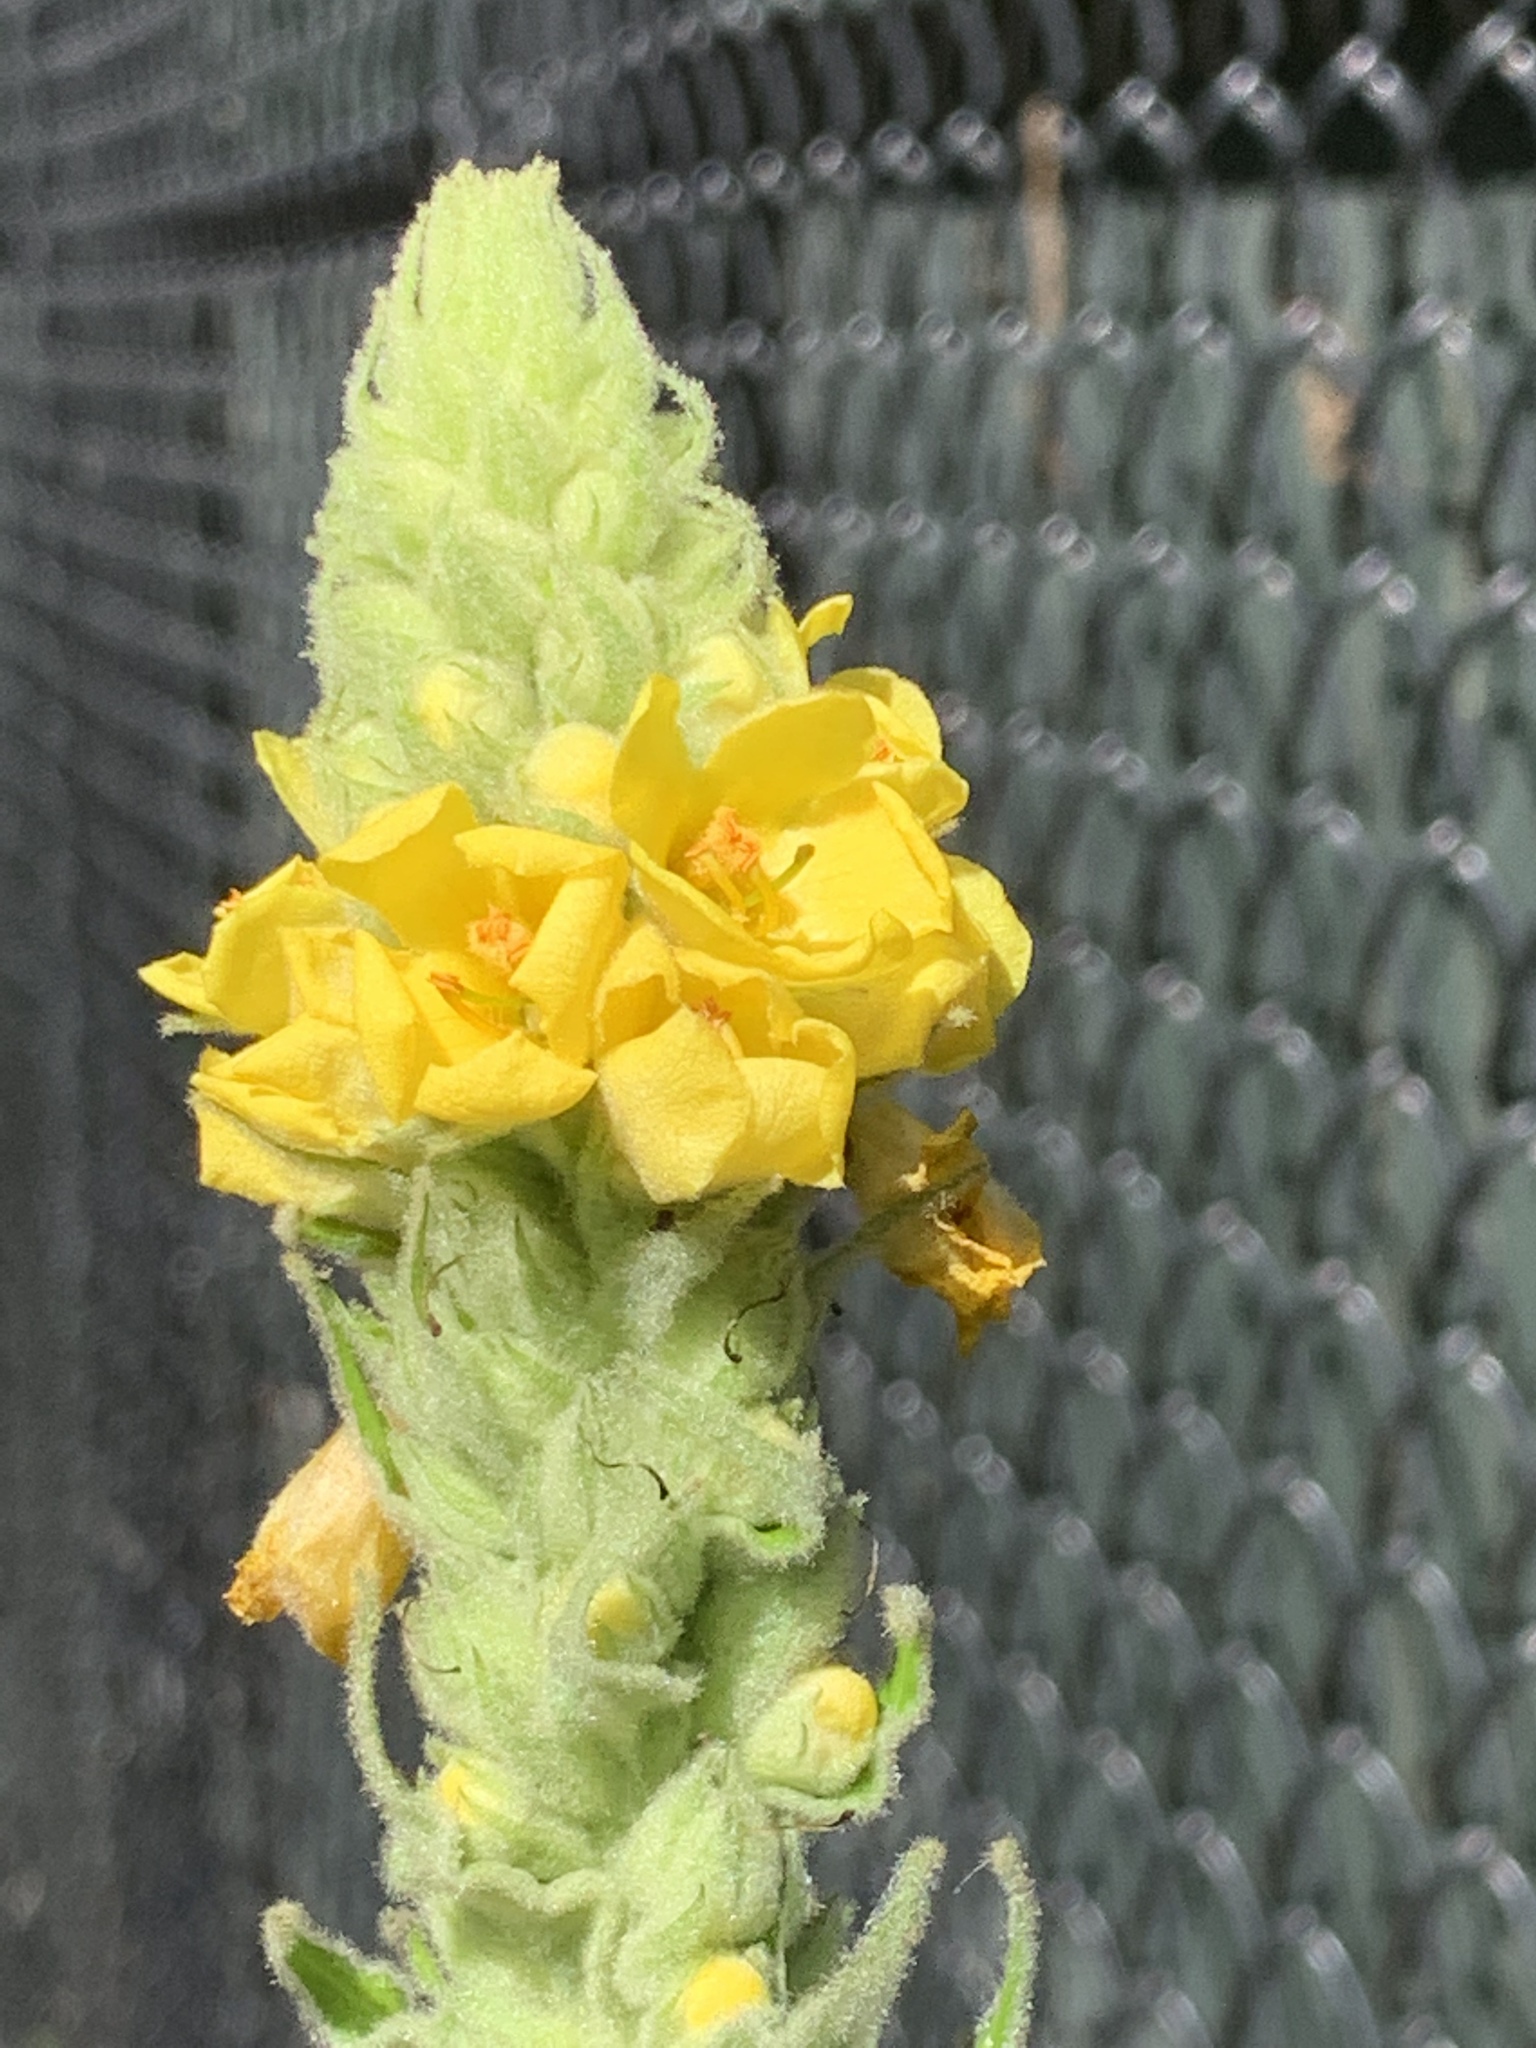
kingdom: Plantae
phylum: Tracheophyta
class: Magnoliopsida
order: Lamiales
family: Scrophulariaceae
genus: Verbascum
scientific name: Verbascum thapsus
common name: Common mullein
